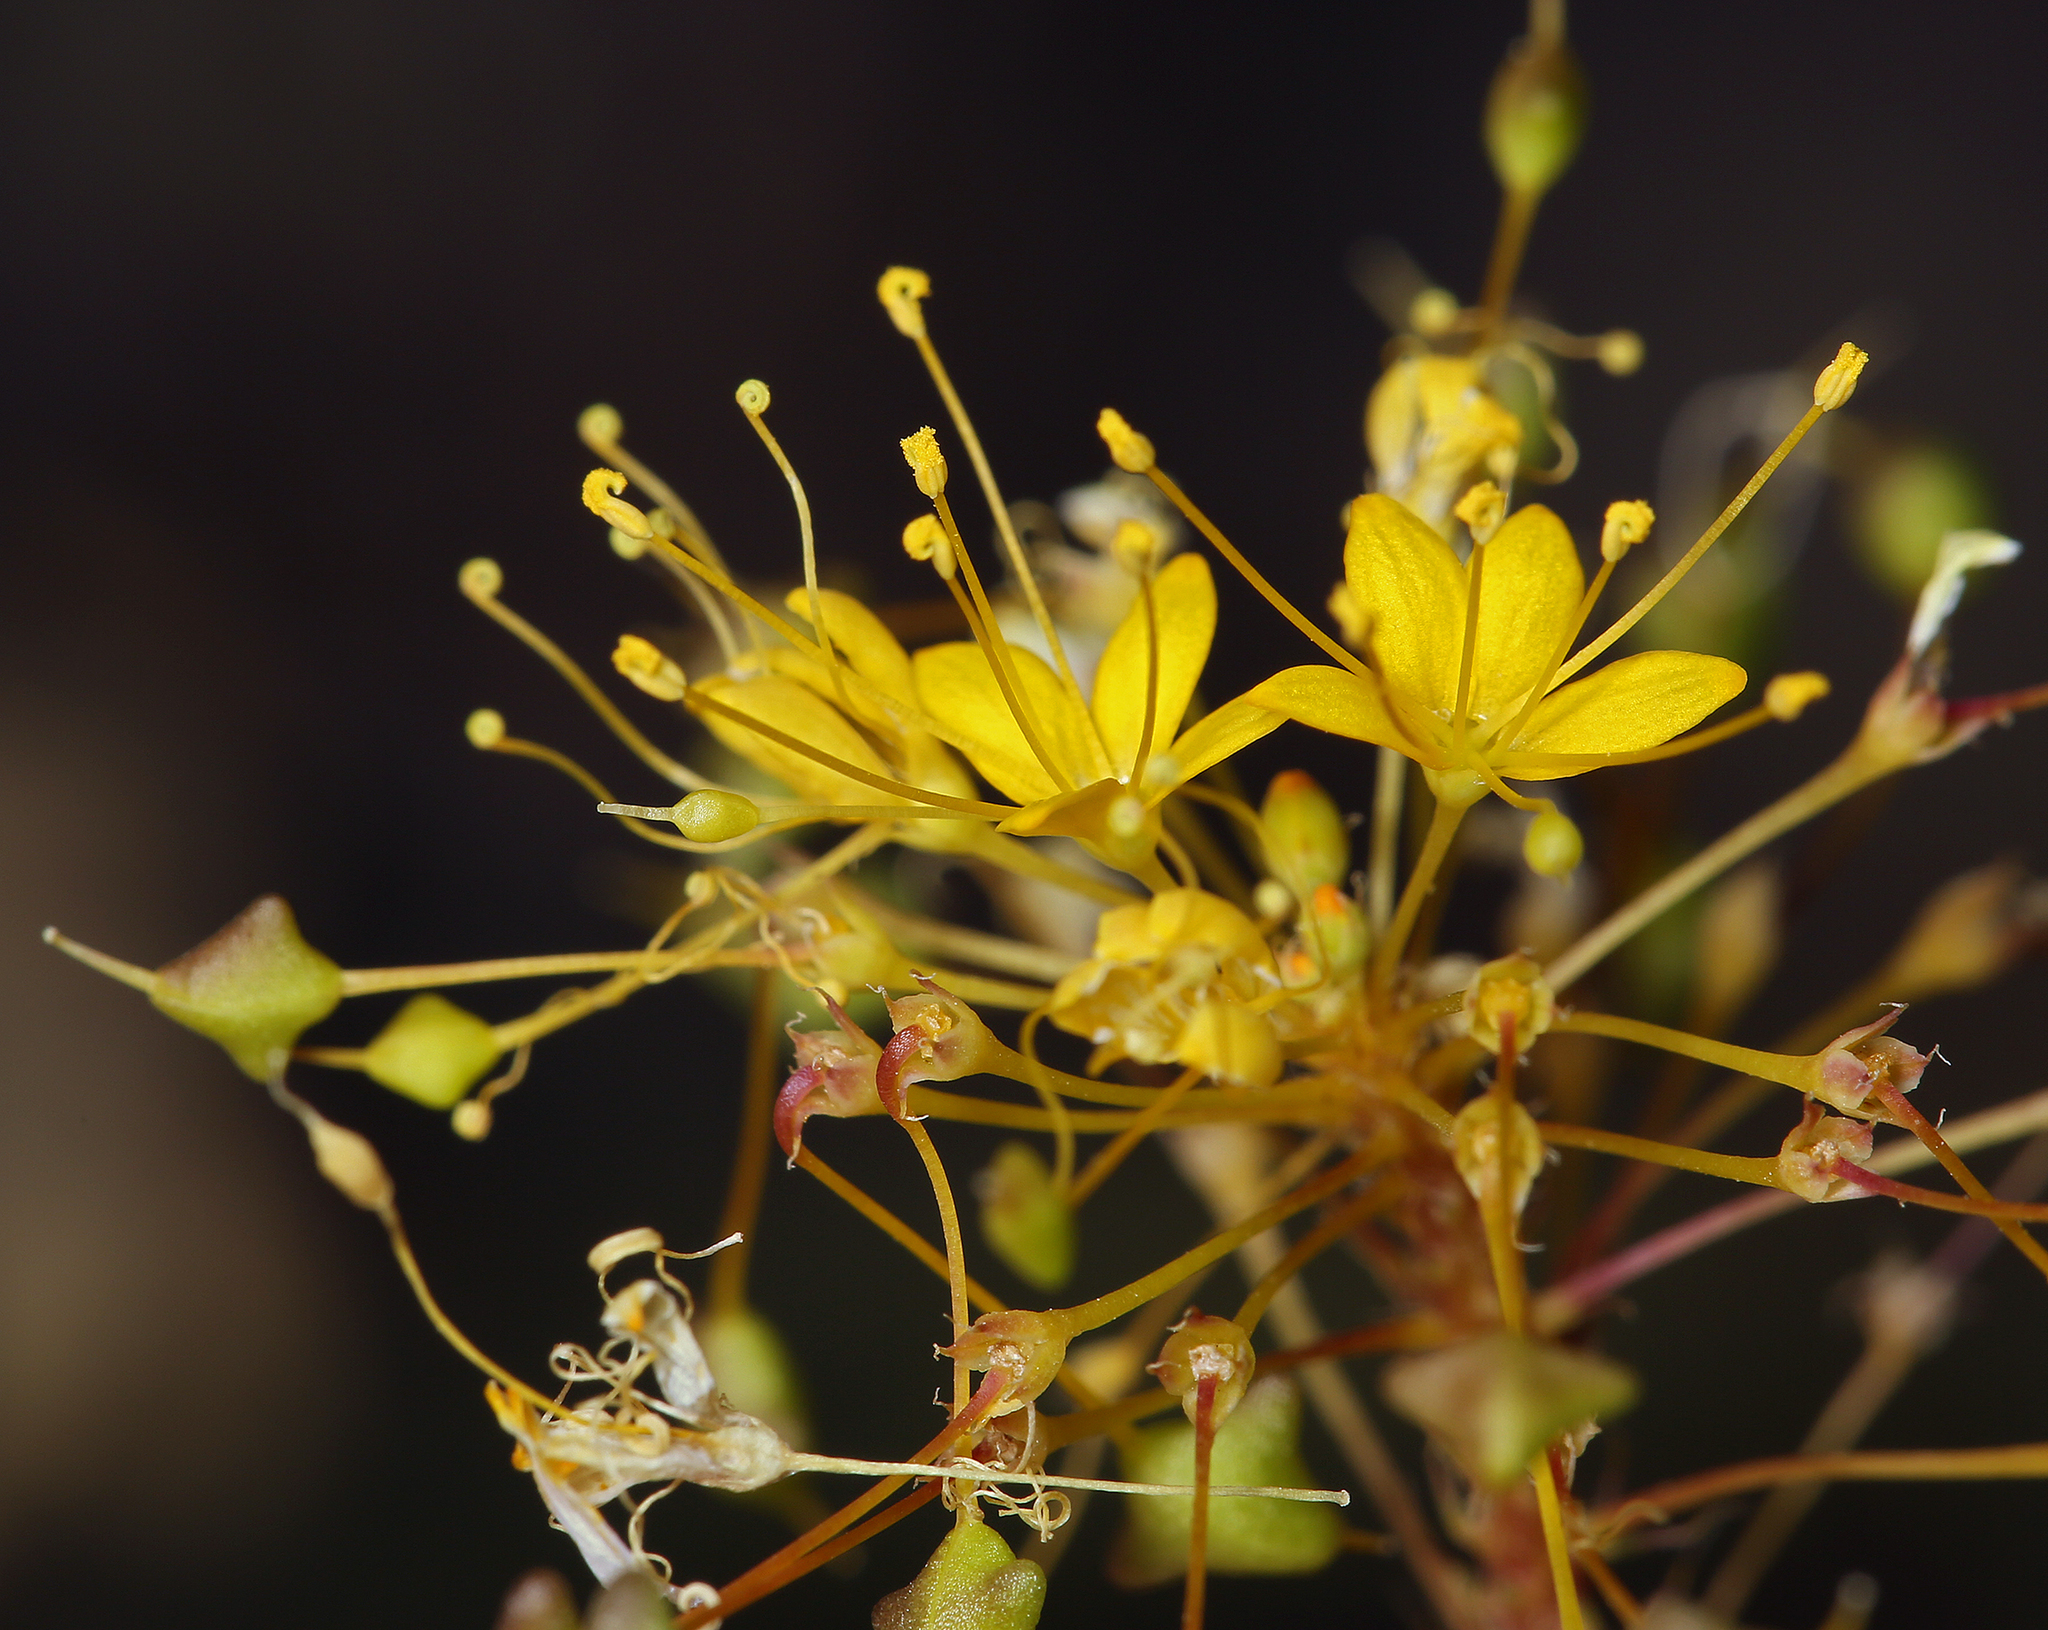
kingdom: Plantae
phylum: Tracheophyta
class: Magnoliopsida
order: Brassicales
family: Cleomaceae
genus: Cleomella
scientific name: Cleomella plocasperma
